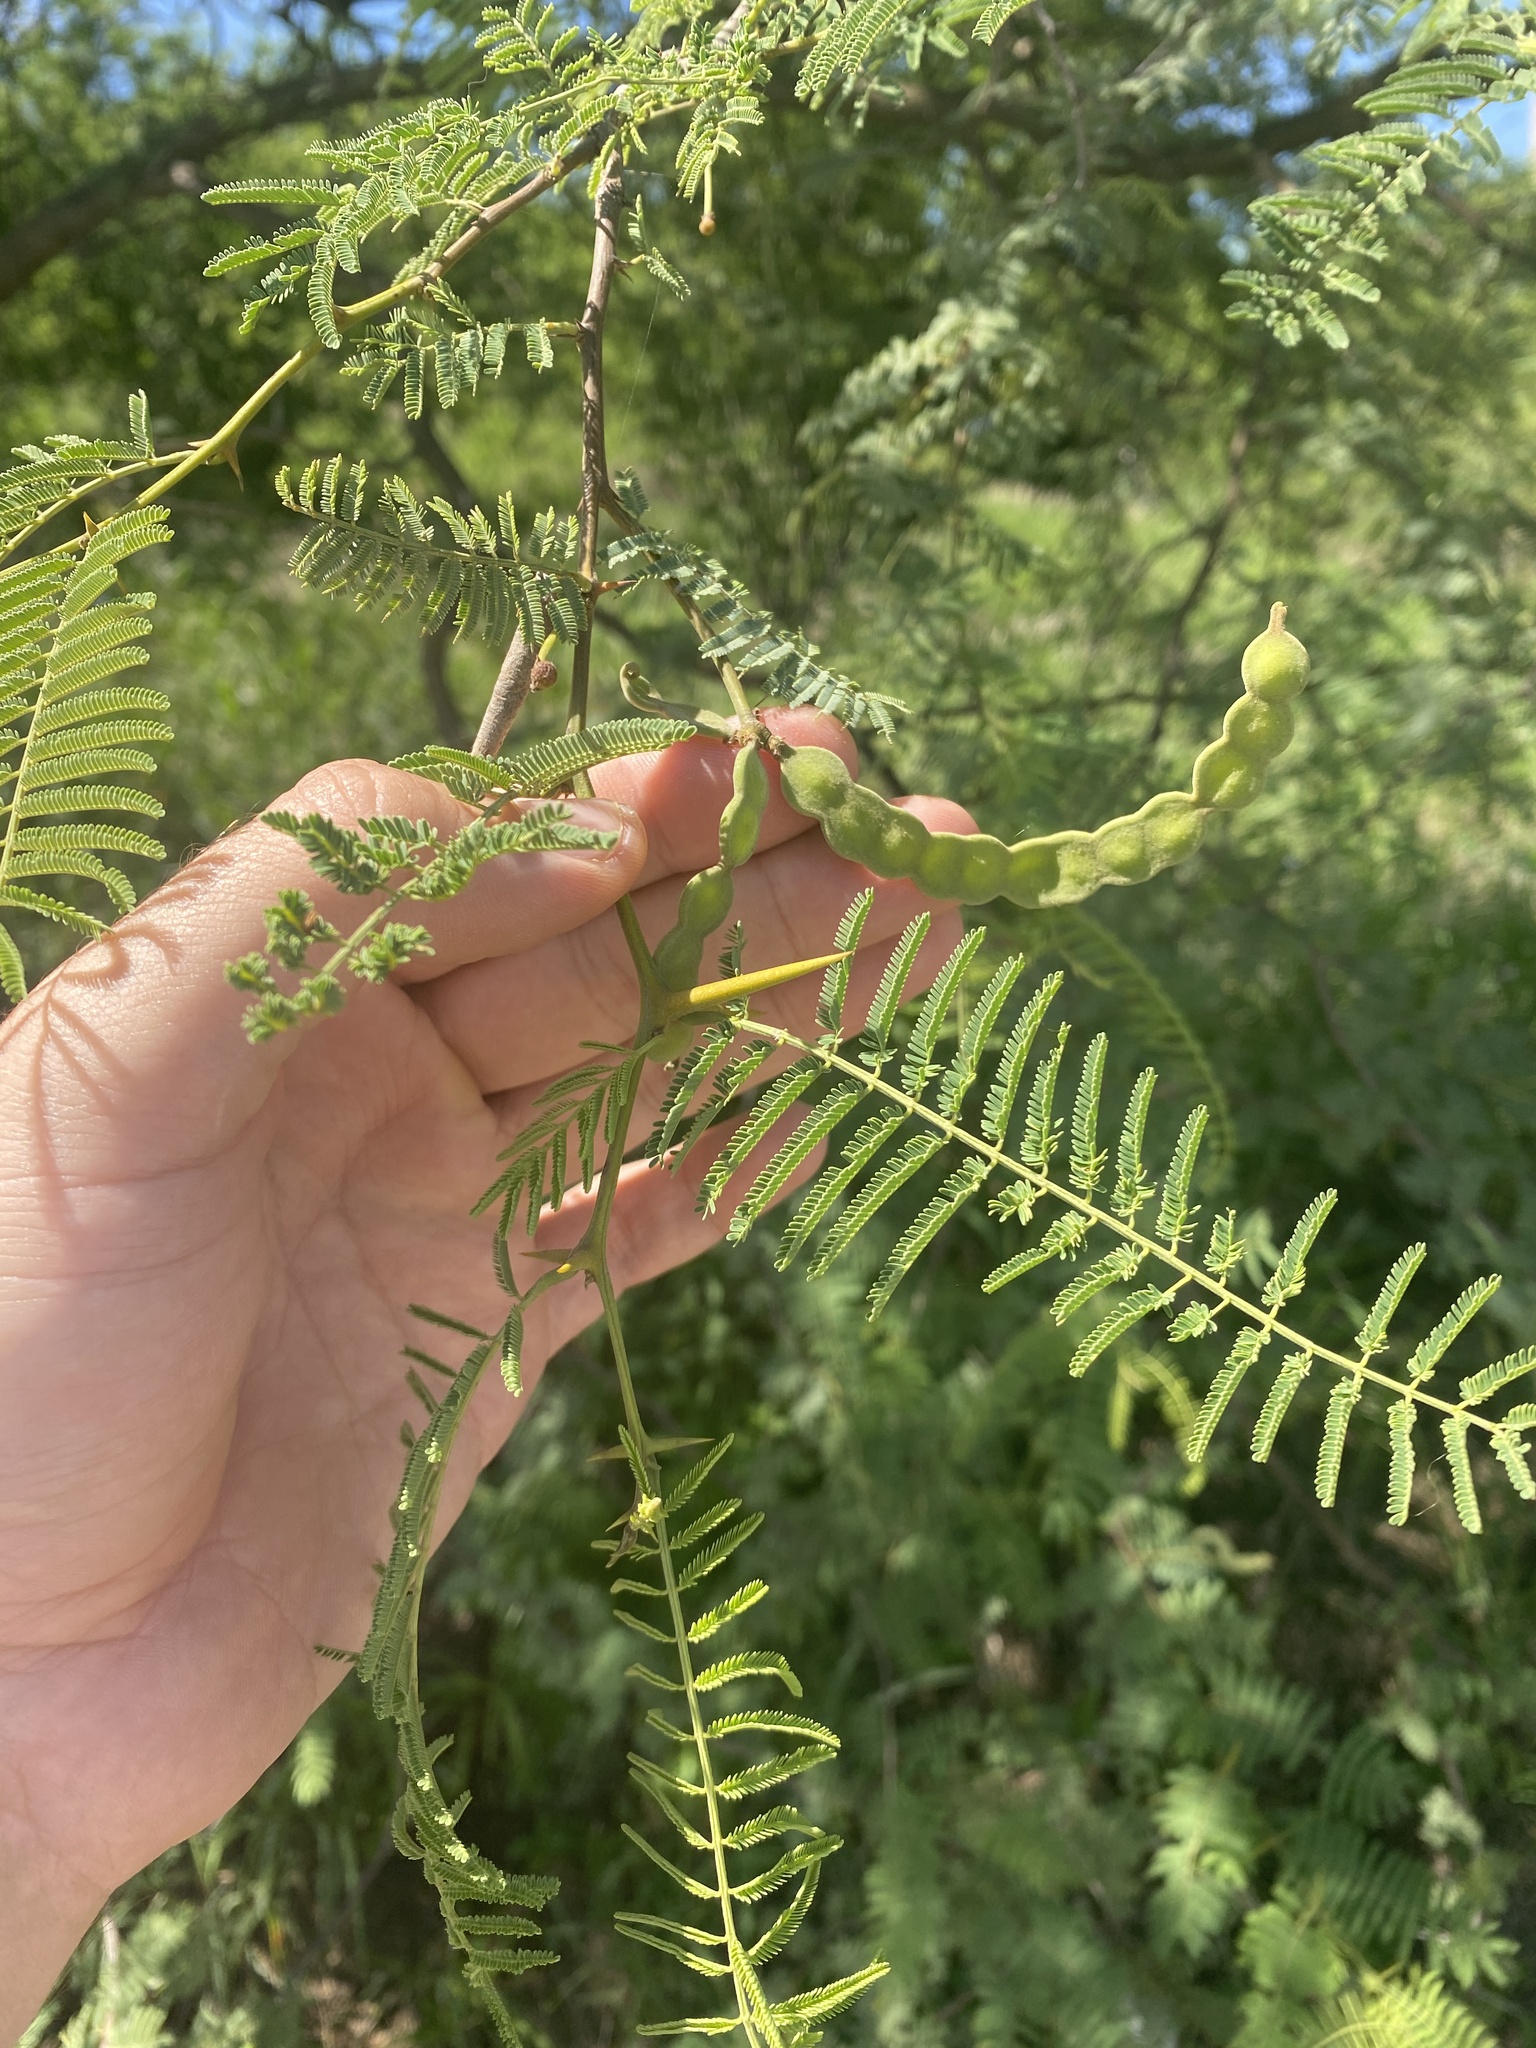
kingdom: Plantae
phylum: Tracheophyta
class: Magnoliopsida
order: Fabales
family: Fabaceae
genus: Vachellia
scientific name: Vachellia aroma
